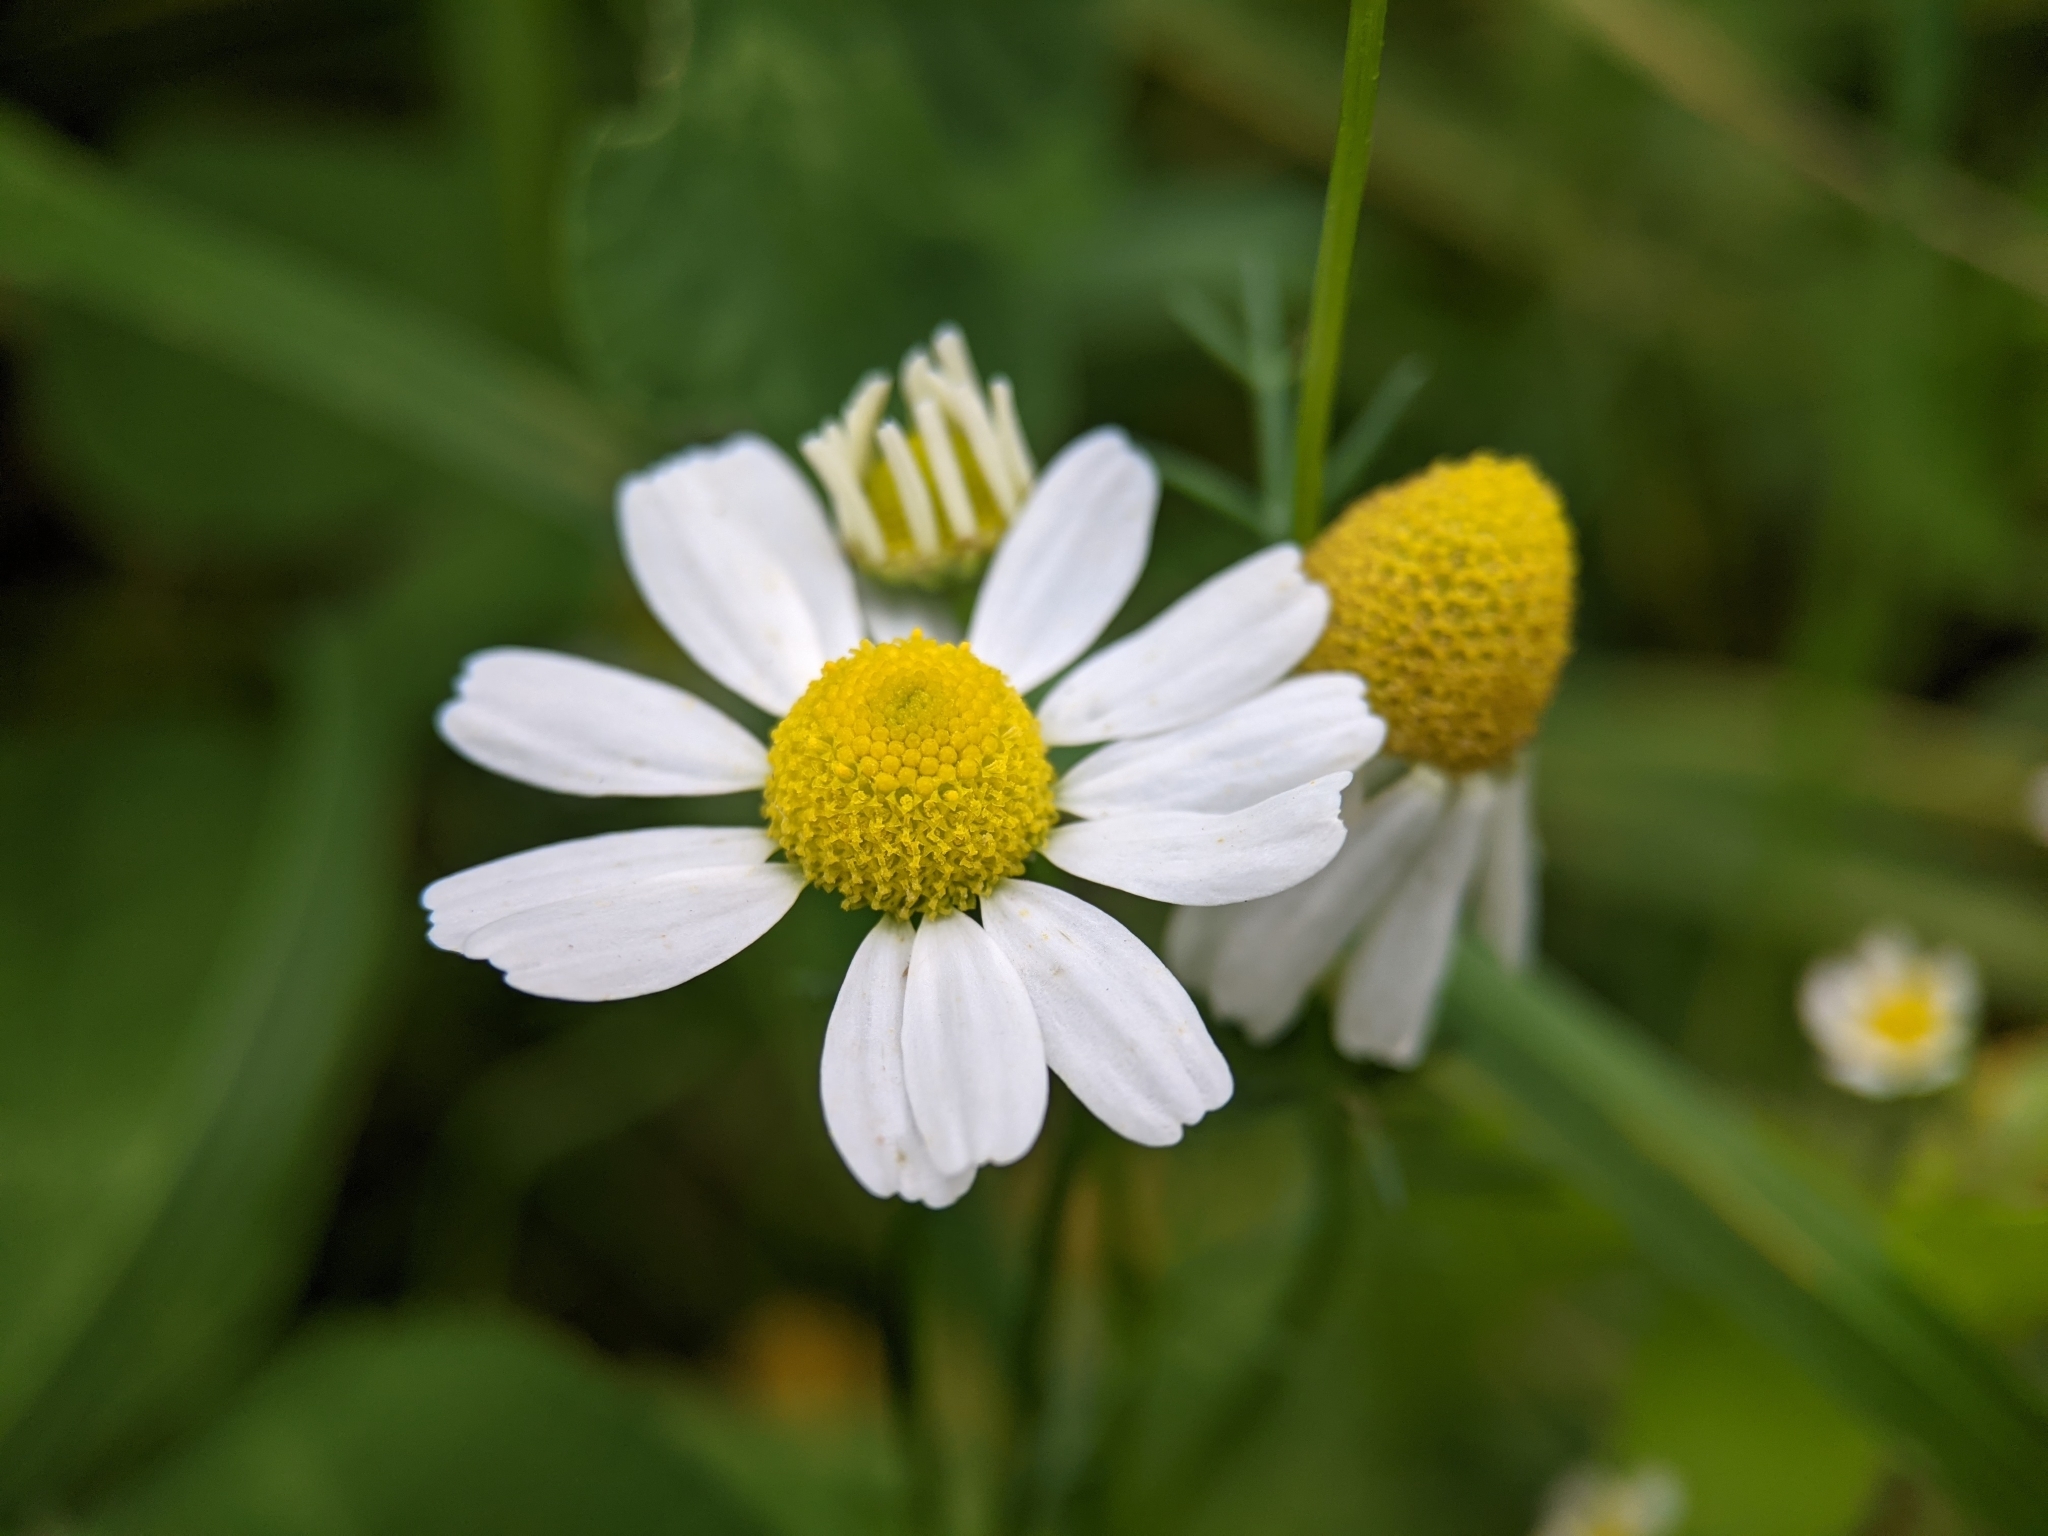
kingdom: Plantae
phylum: Tracheophyta
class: Magnoliopsida
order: Asterales
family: Asteraceae
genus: Matricaria
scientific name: Matricaria chamomilla
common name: Scented mayweed
